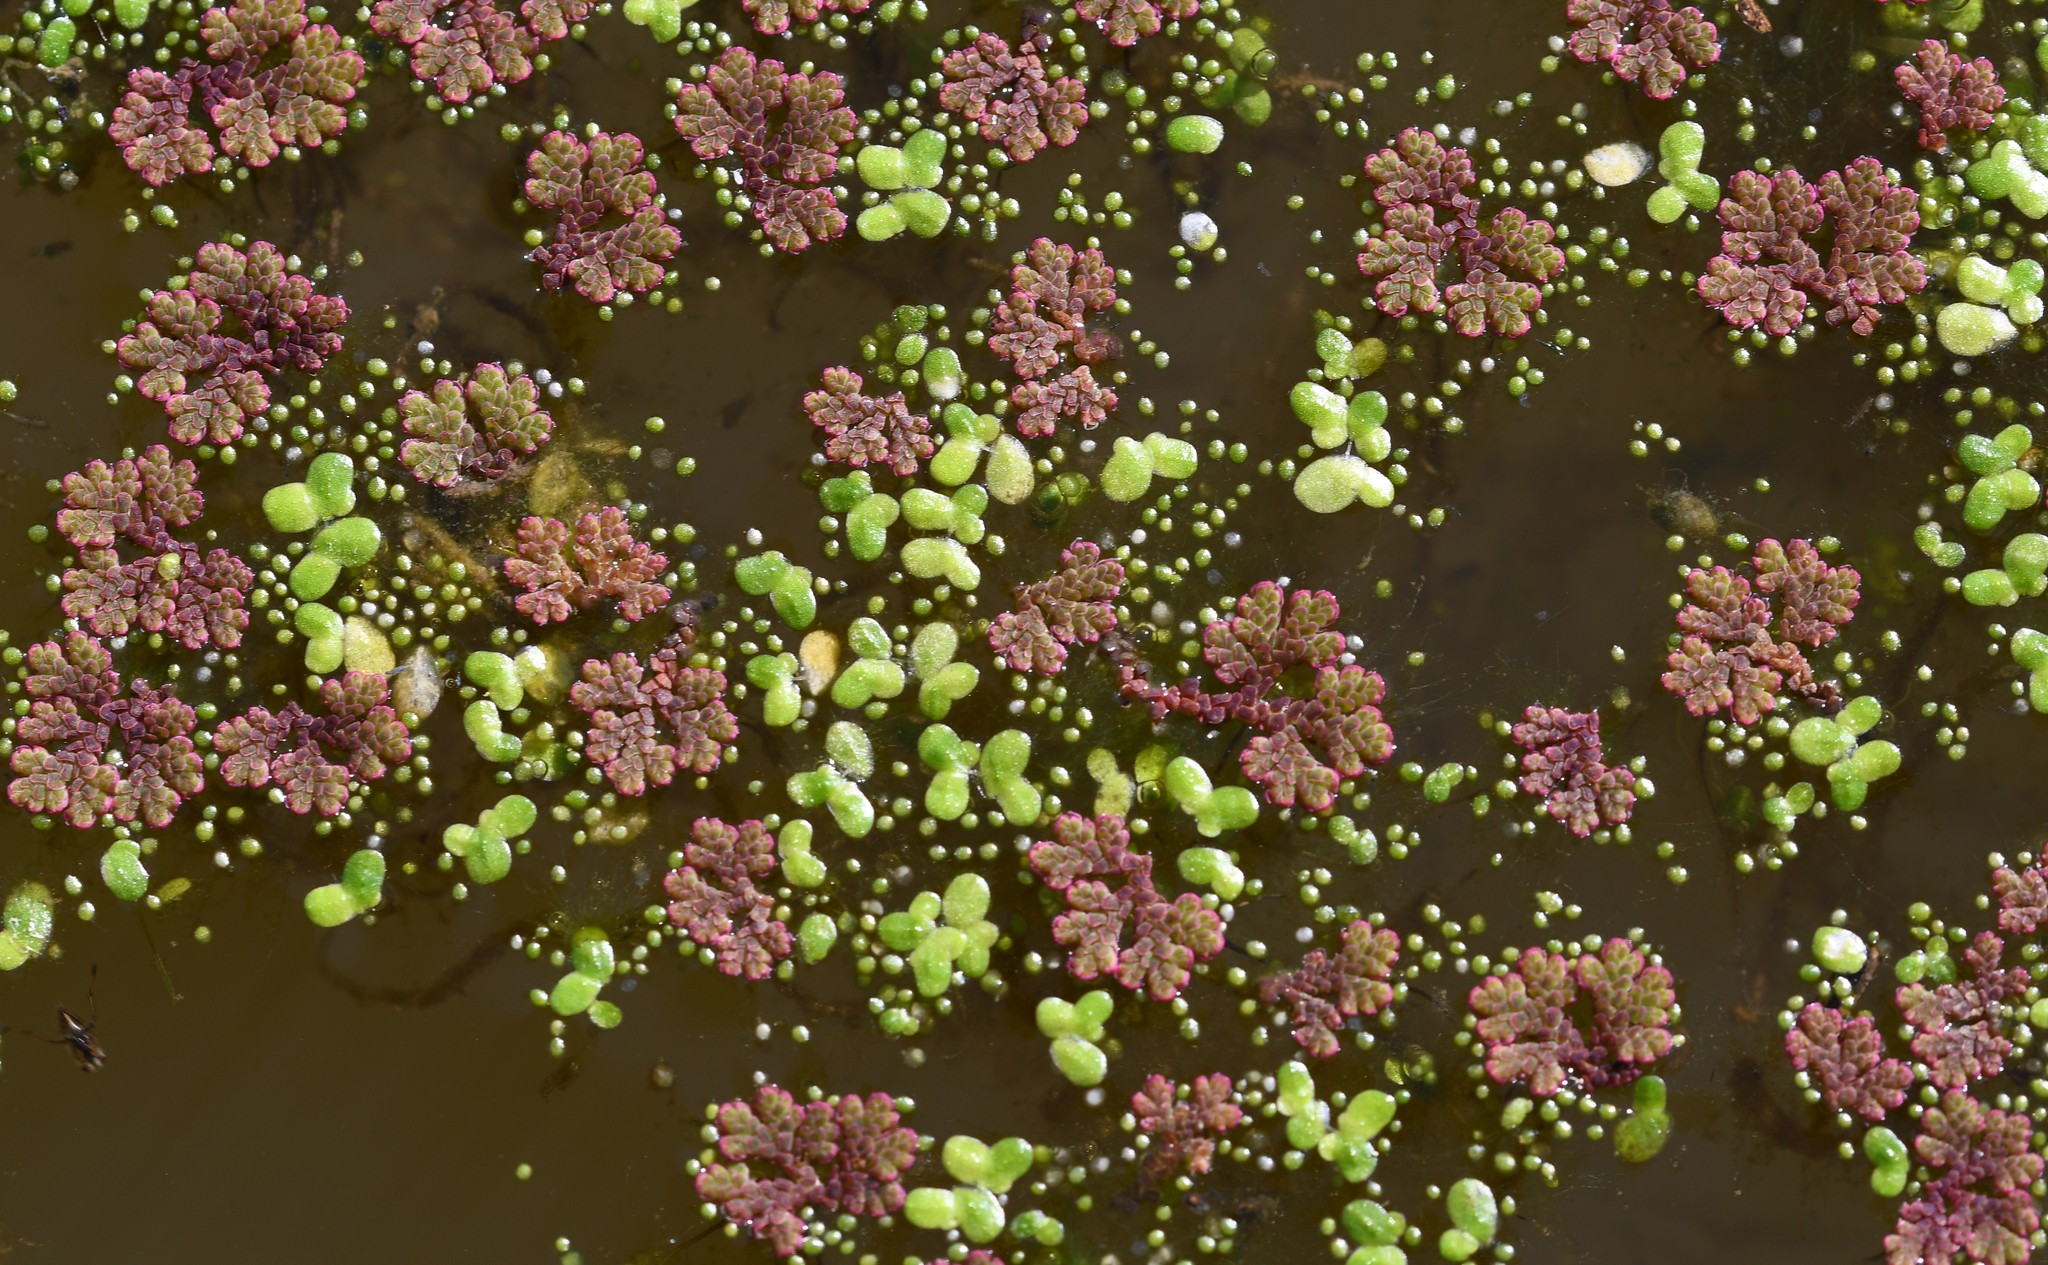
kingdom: Plantae
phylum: Tracheophyta
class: Polypodiopsida
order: Salviniales
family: Salviniaceae
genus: Azolla
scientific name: Azolla filiculoides
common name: Water fern
